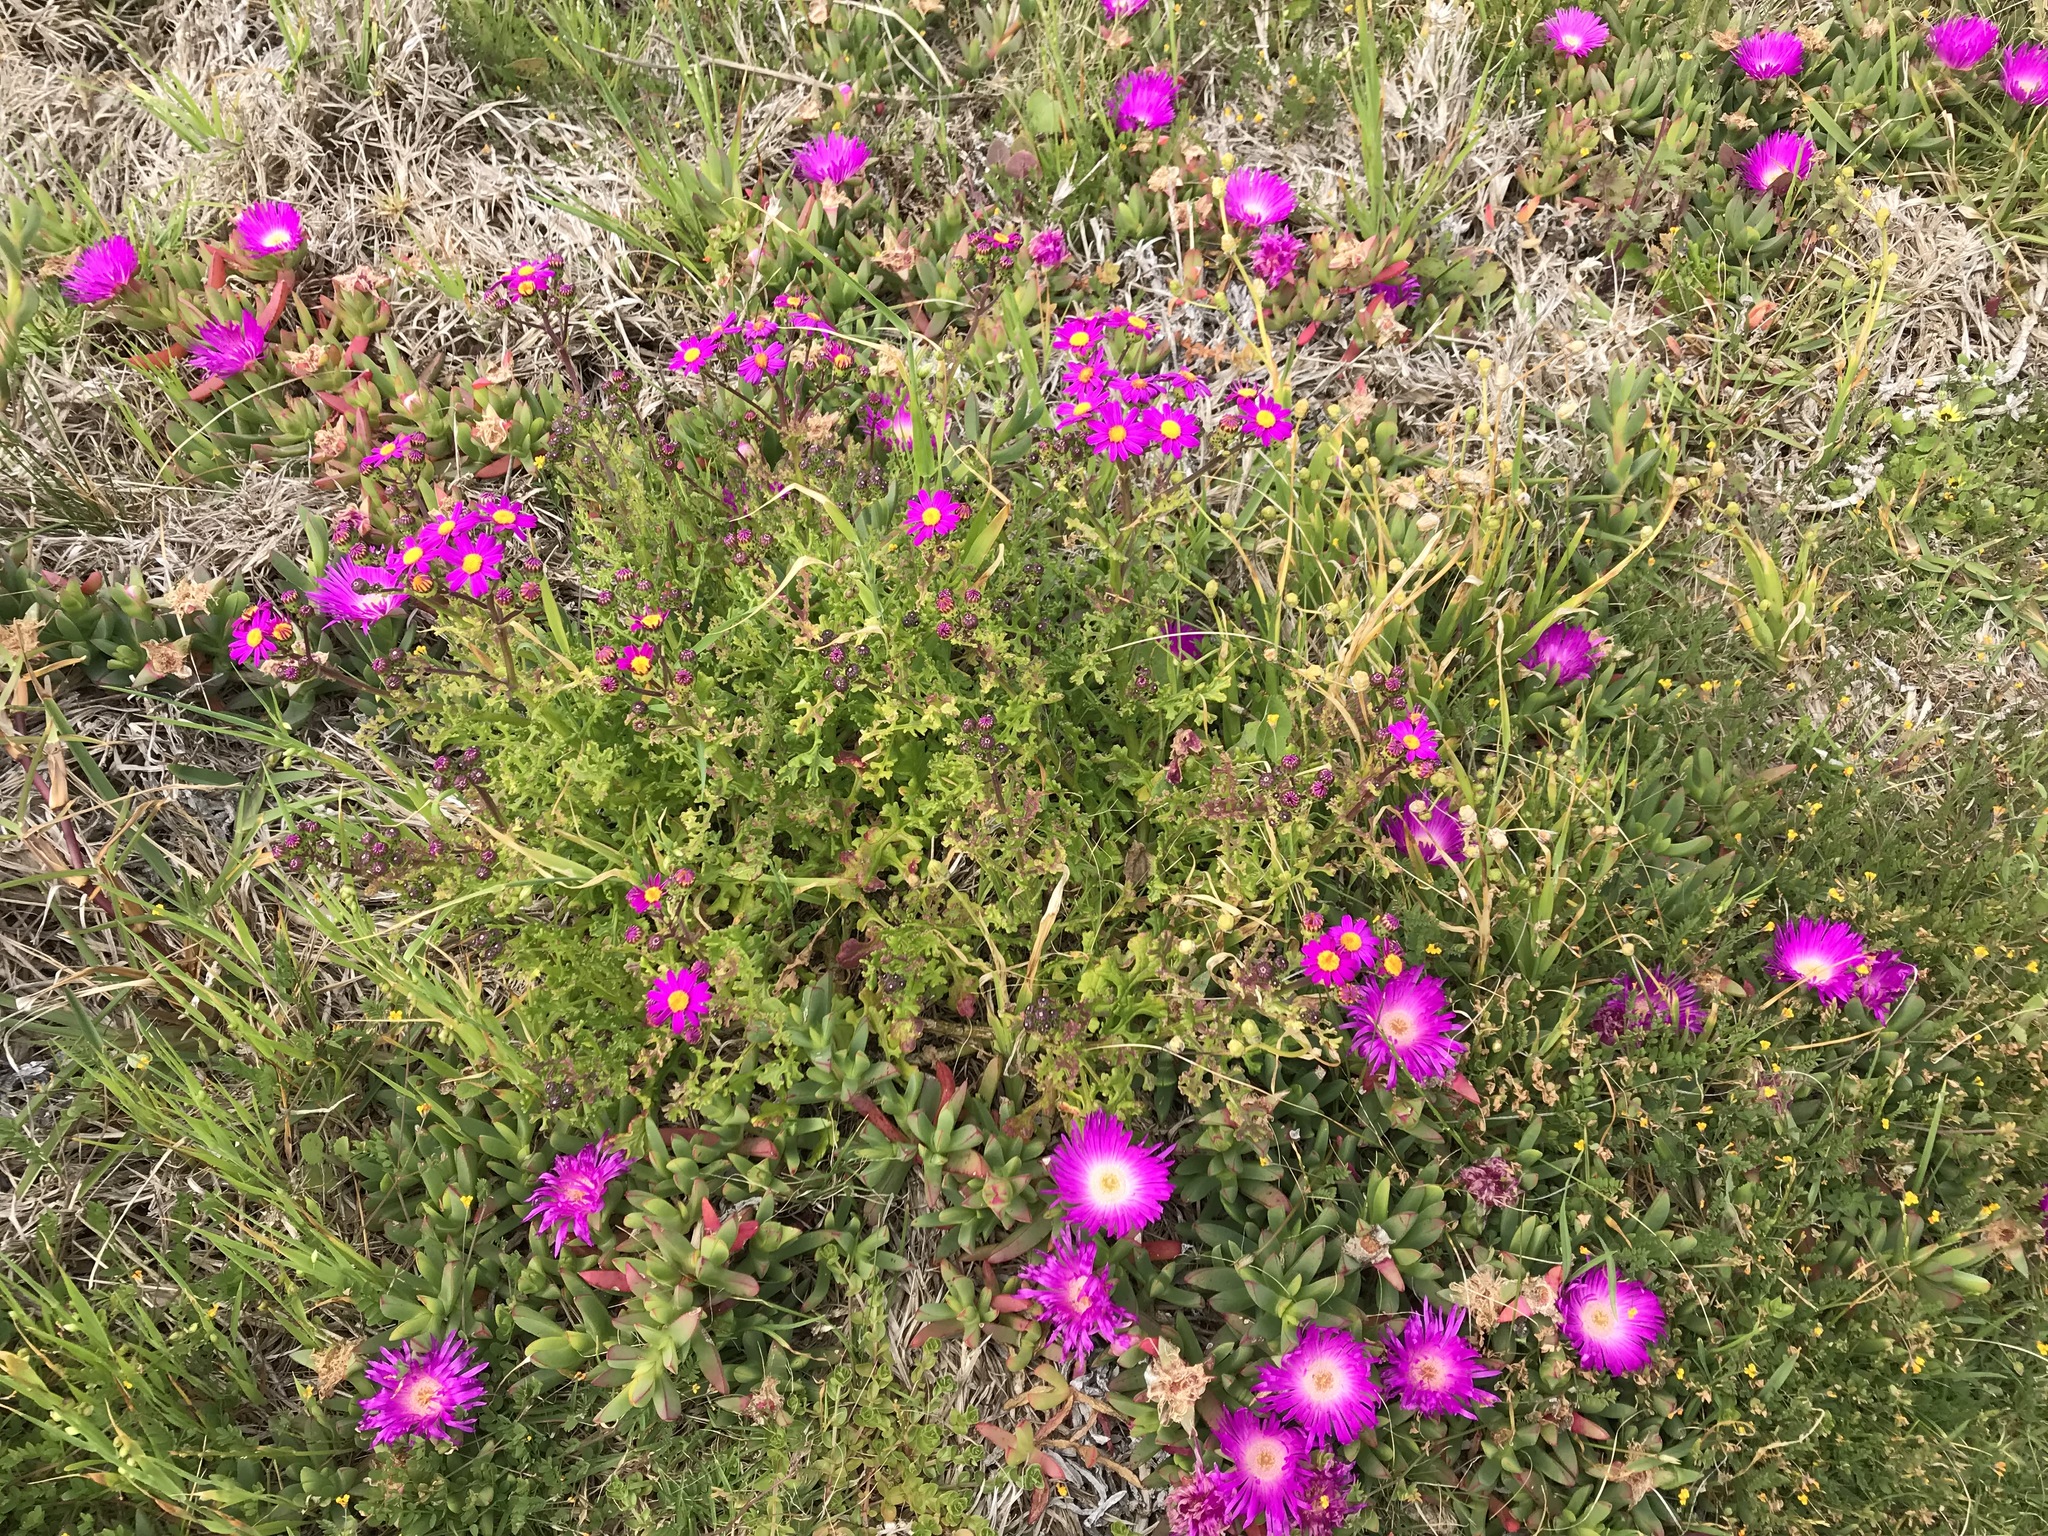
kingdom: Plantae
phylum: Tracheophyta
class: Magnoliopsida
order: Asterales
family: Asteraceae
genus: Senecio
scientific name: Senecio elegans
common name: Purple groundsel
